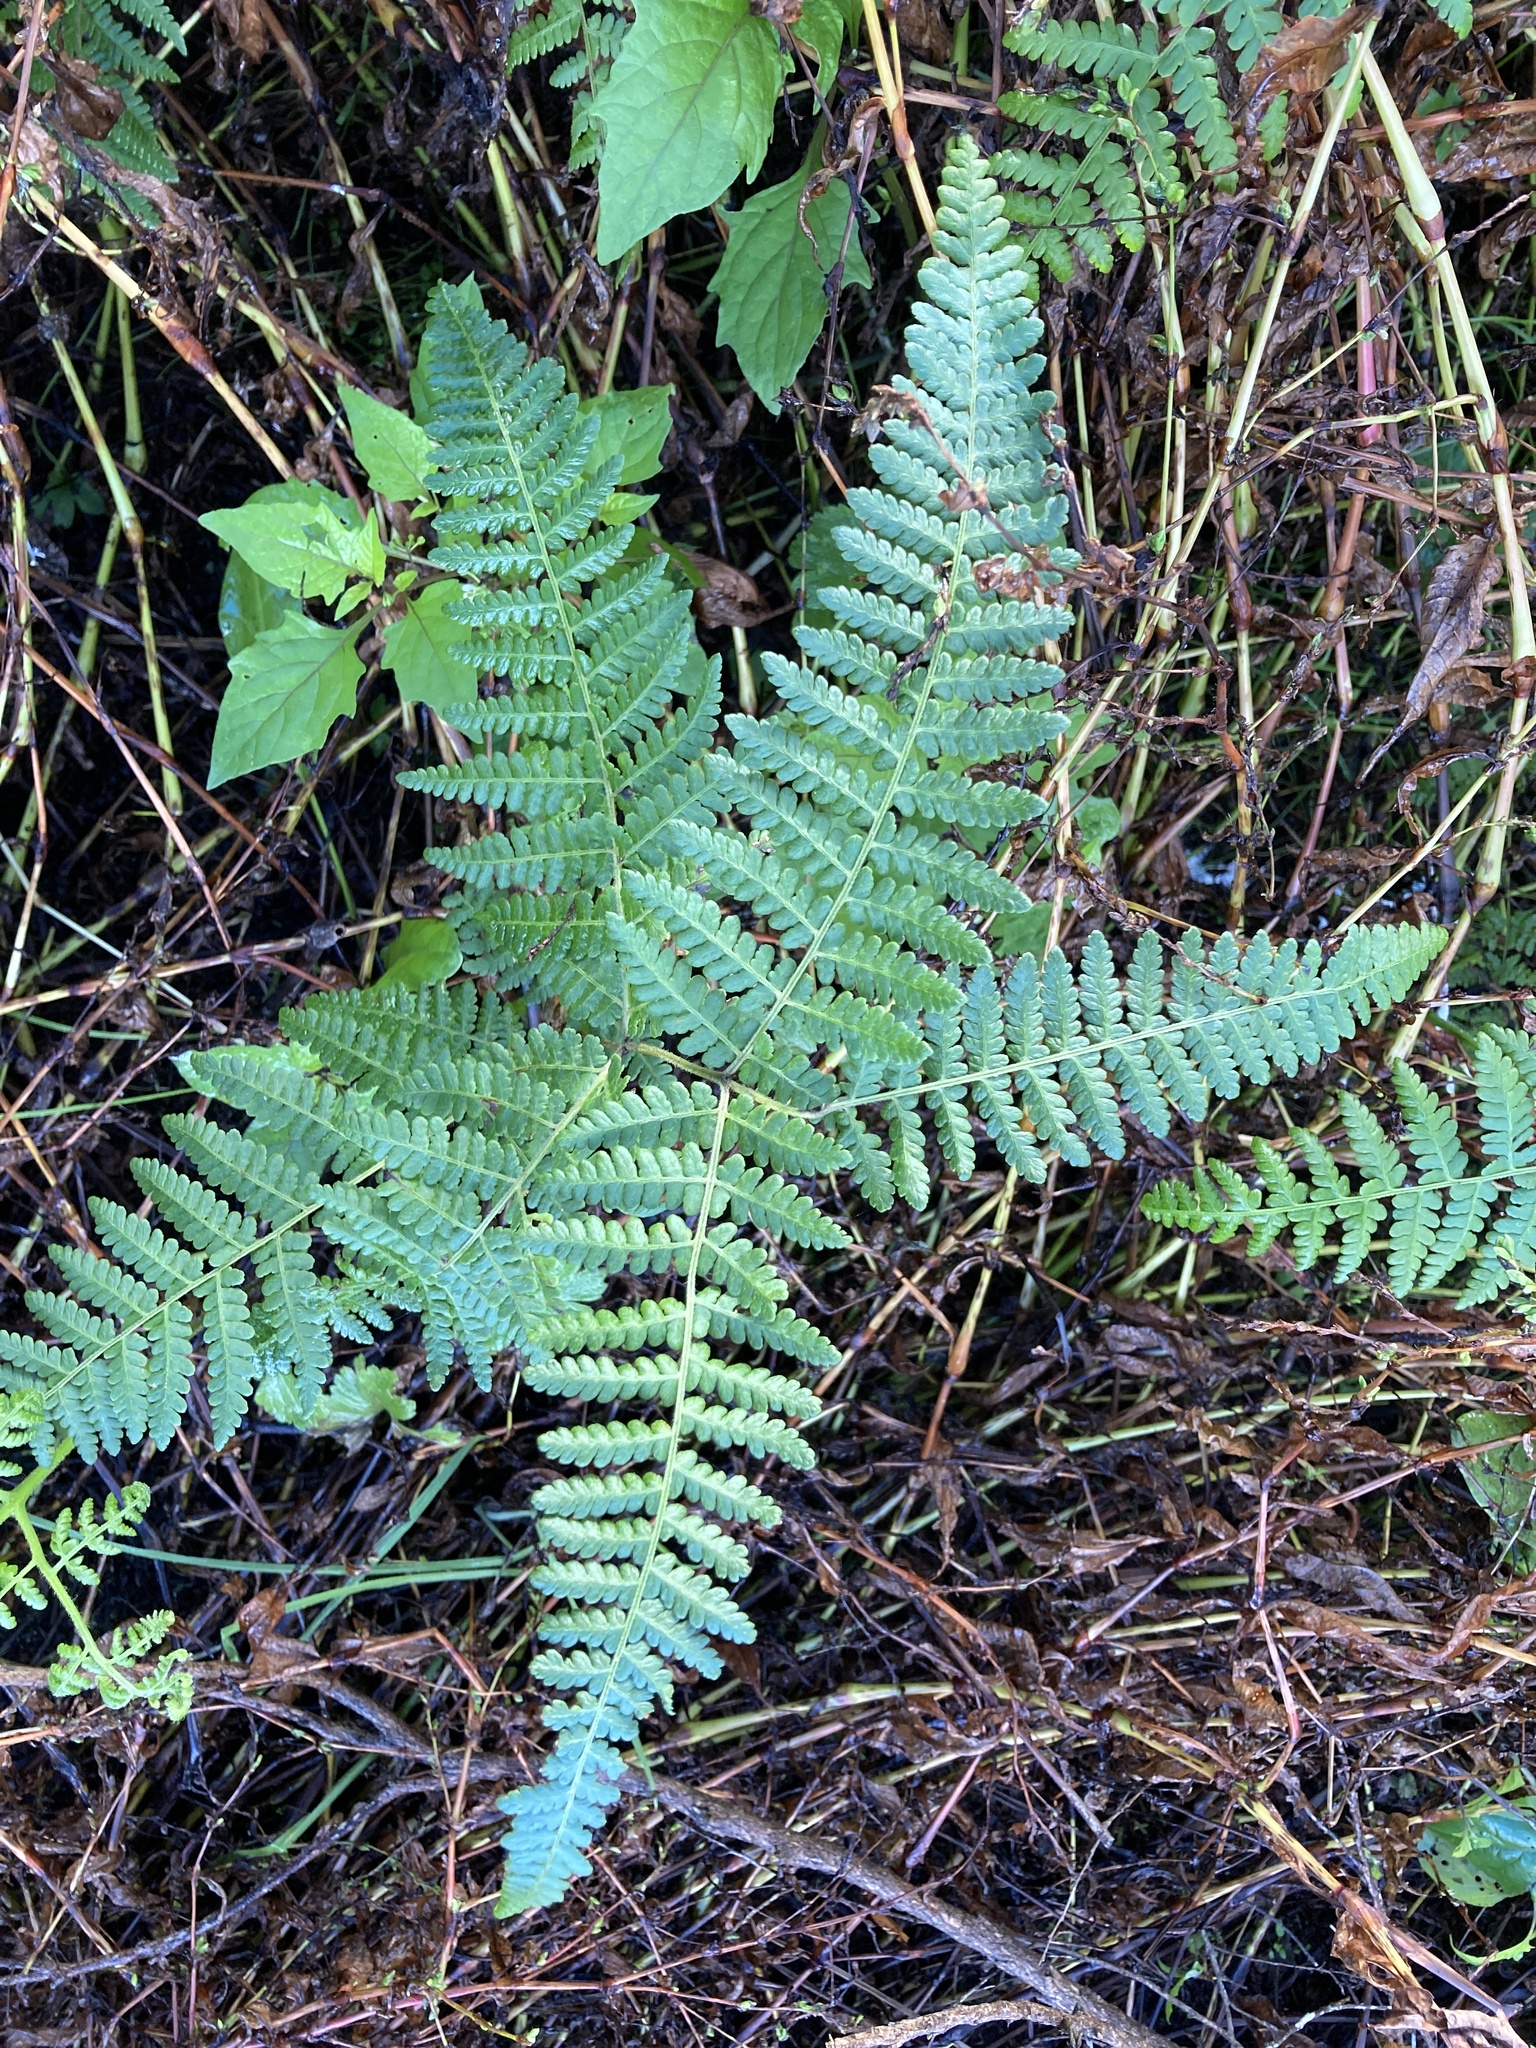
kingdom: Plantae
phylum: Tracheophyta
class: Polypodiopsida
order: Polypodiales
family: Dennstaedtiaceae
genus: Hypolepis
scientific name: Hypolepis ambigua
